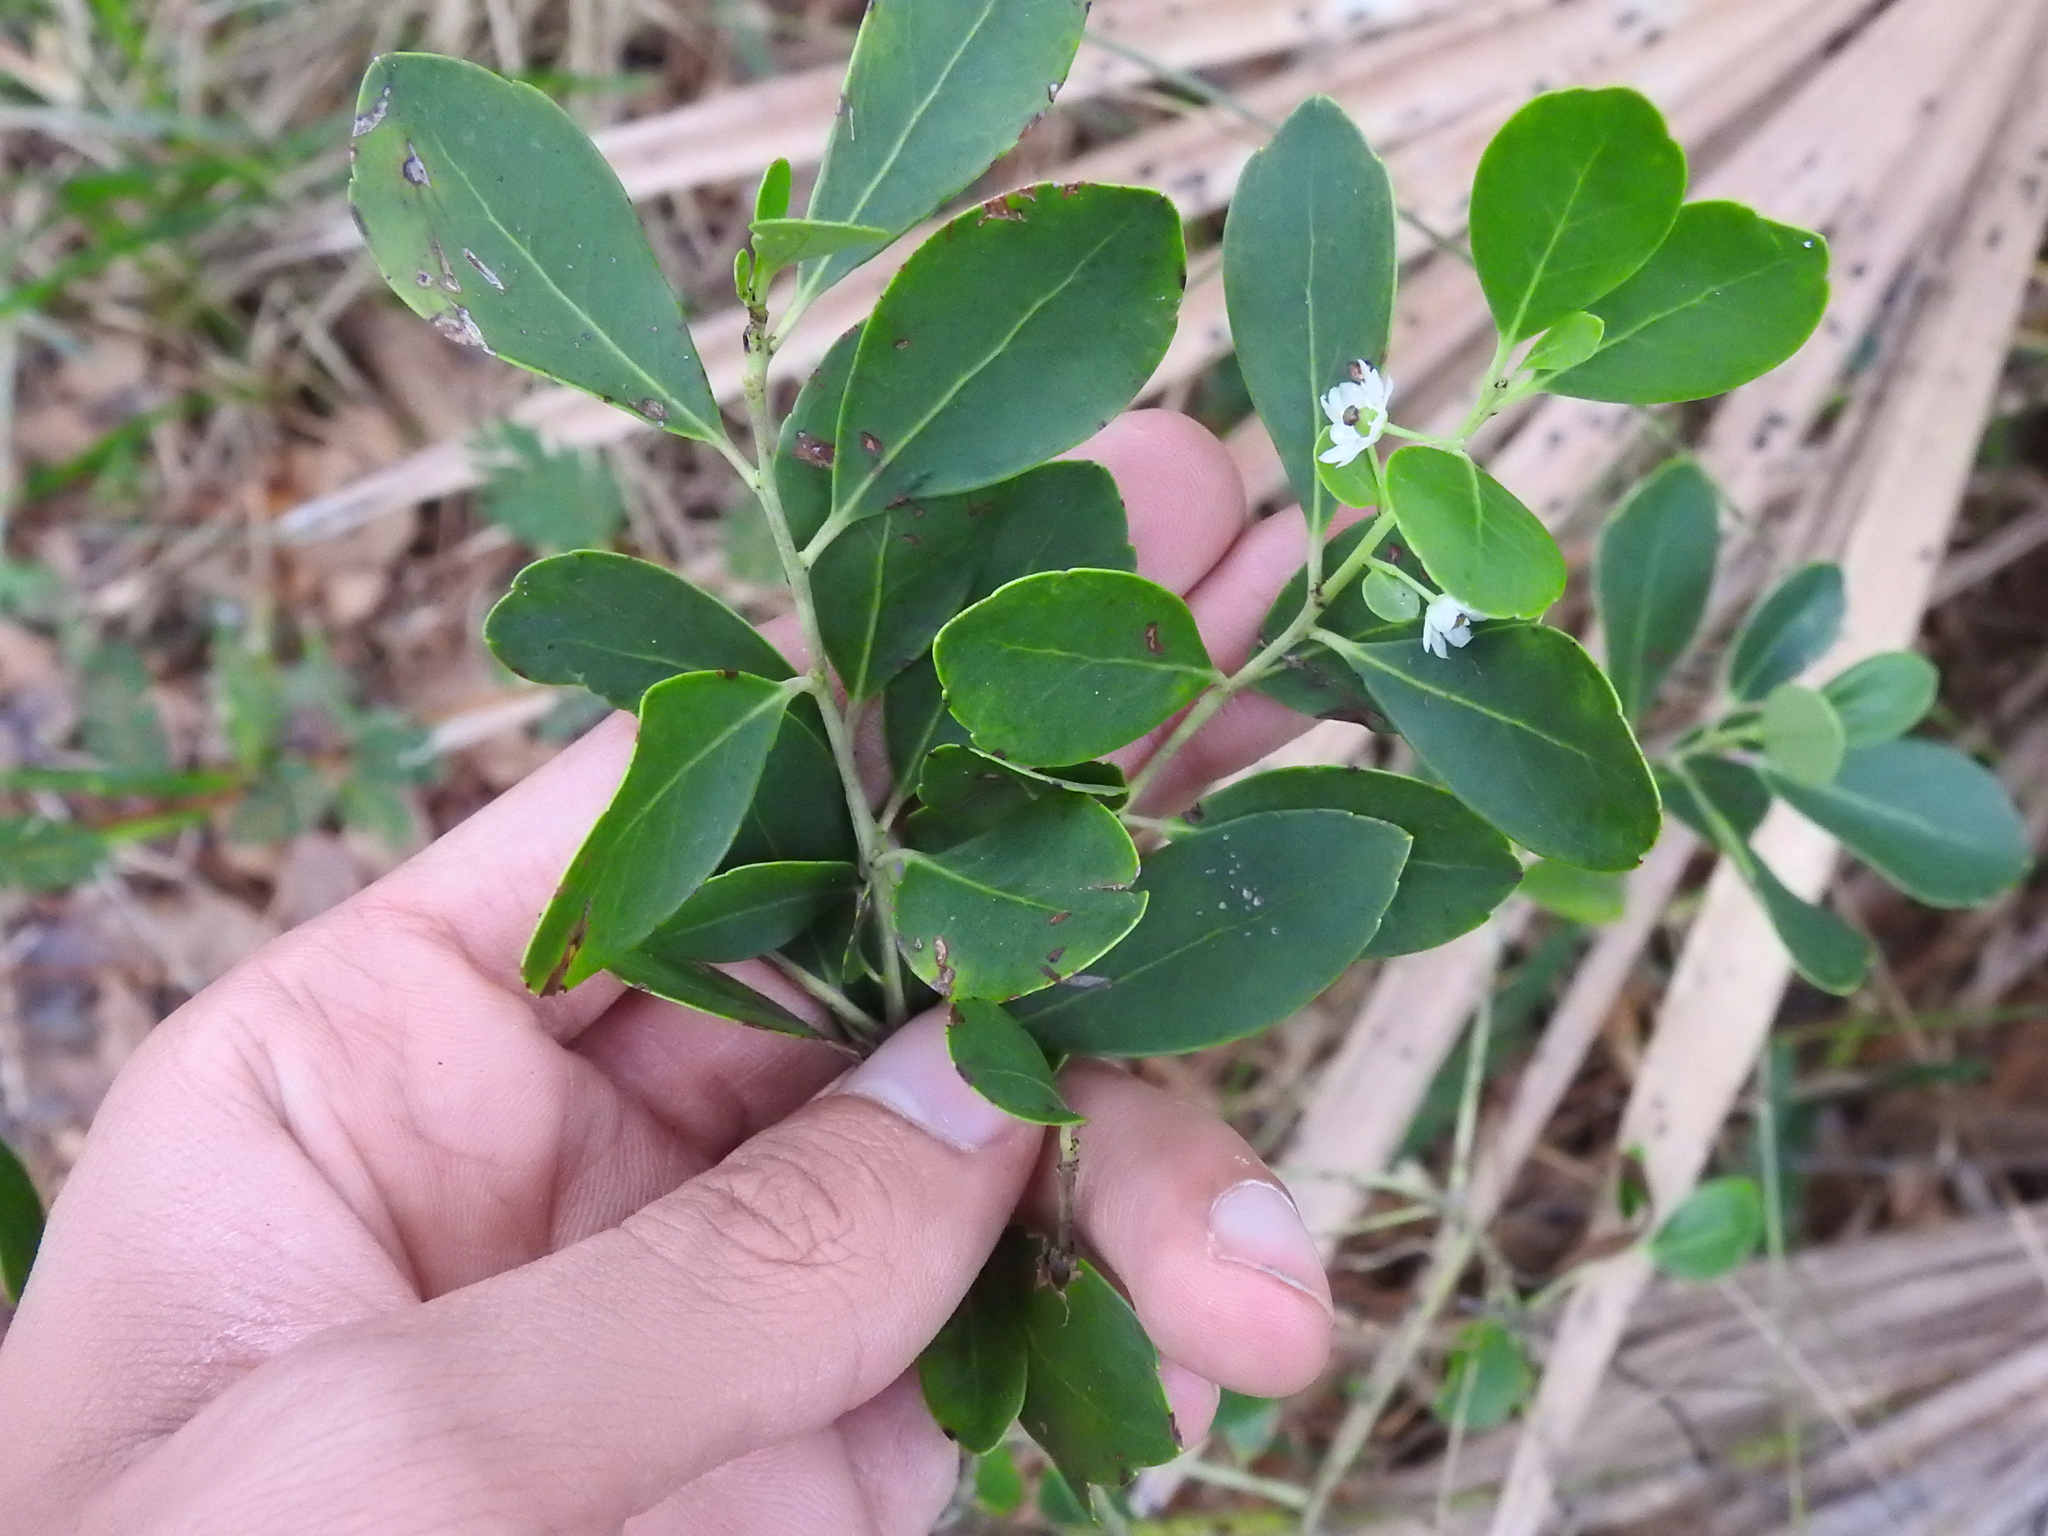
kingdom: Plantae
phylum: Tracheophyta
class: Magnoliopsida
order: Aquifoliales
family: Aquifoliaceae
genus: Ilex
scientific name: Ilex glabra
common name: Bitter gallberry
